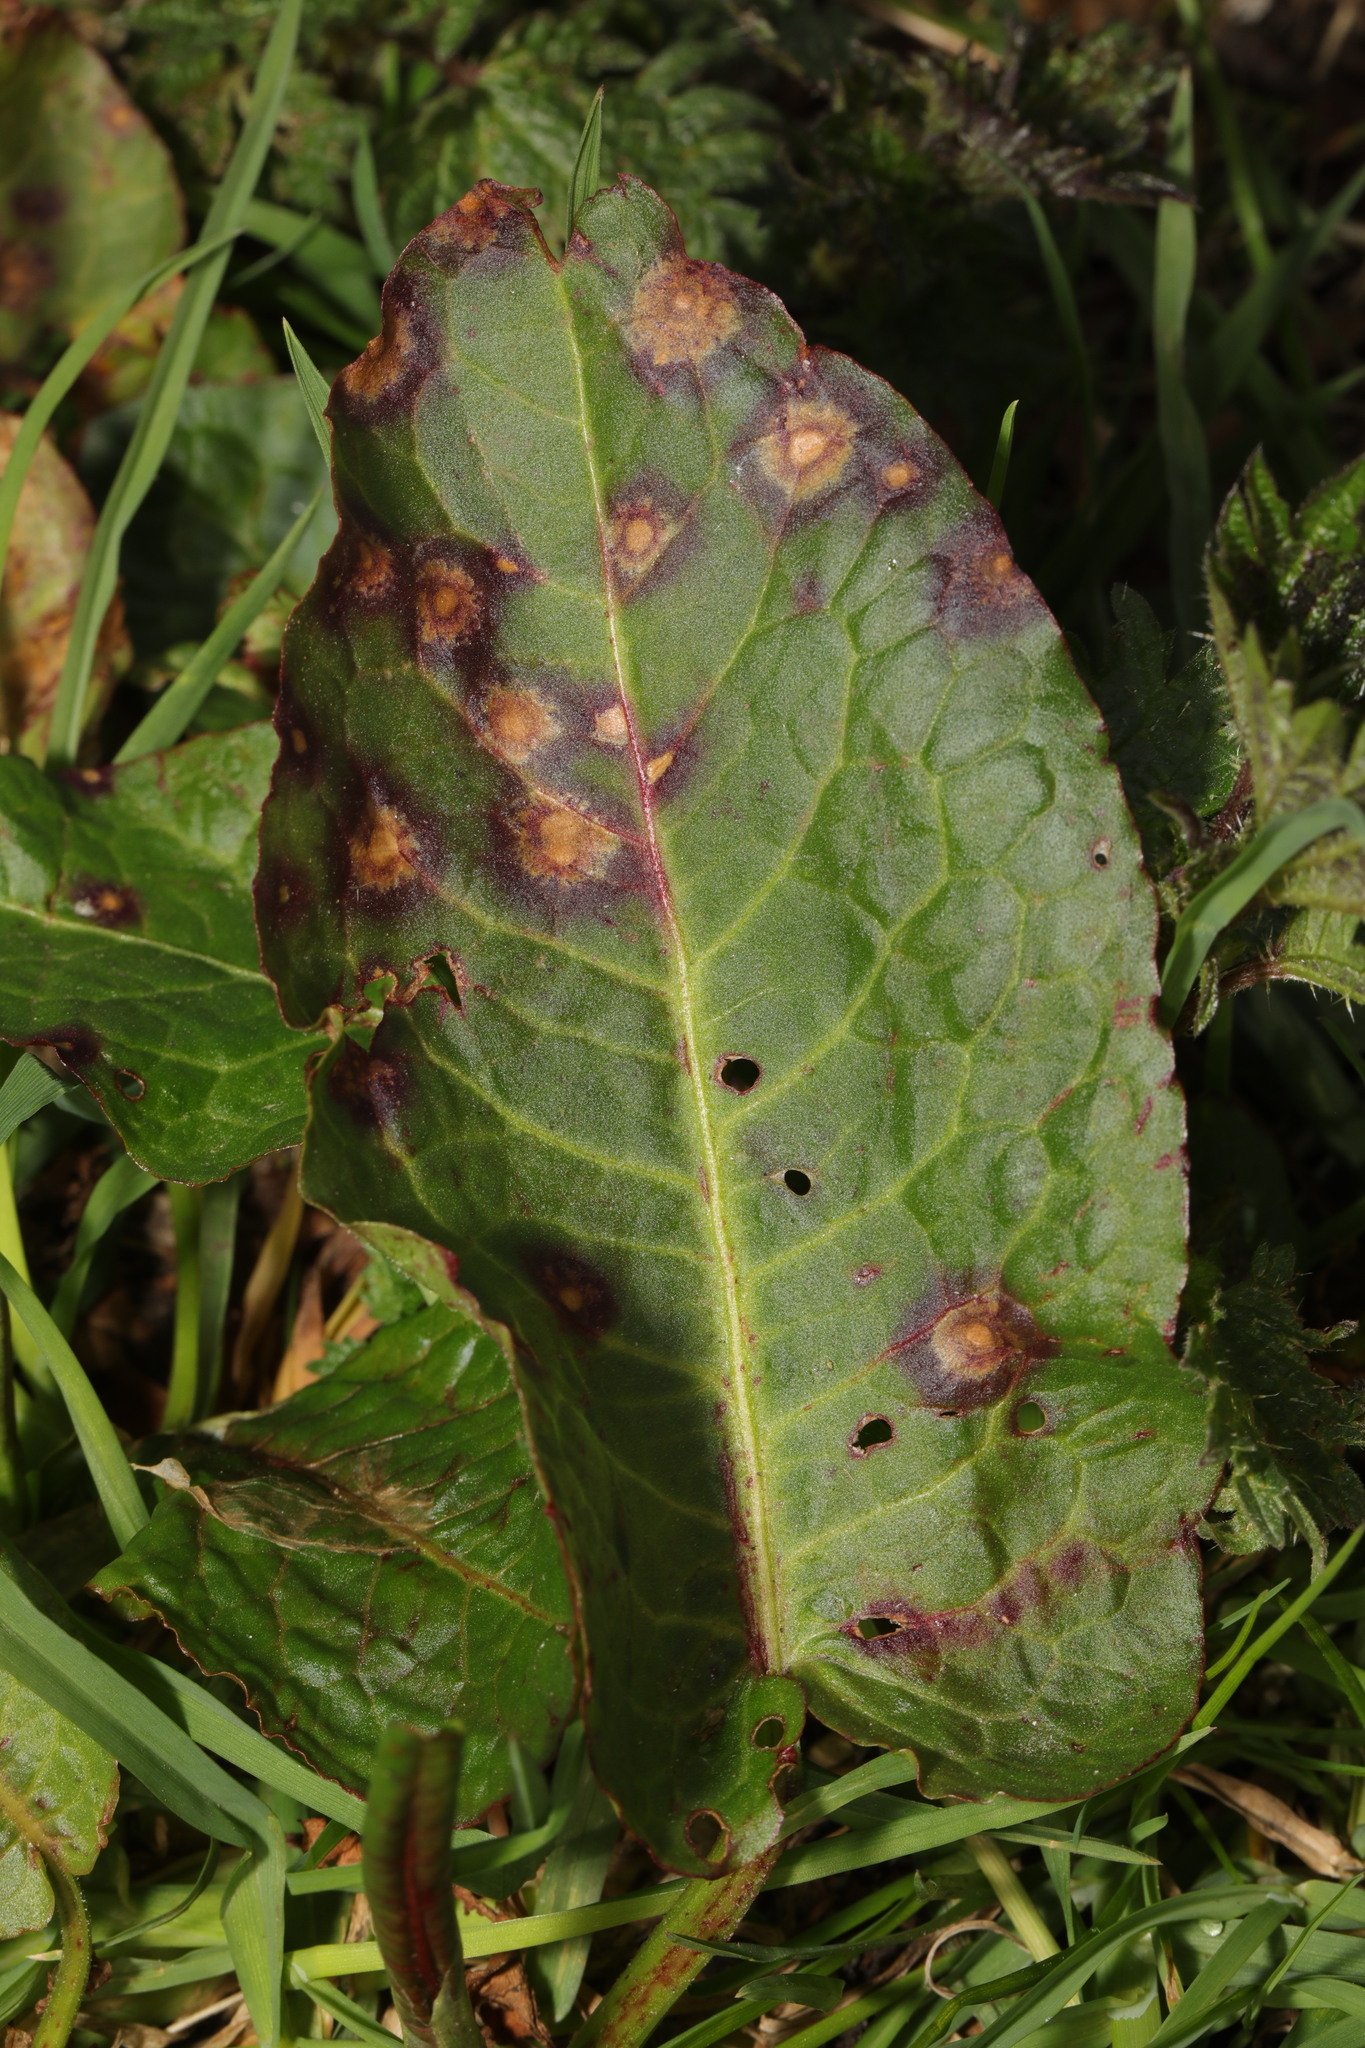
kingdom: Plantae
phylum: Tracheophyta
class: Magnoliopsida
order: Caryophyllales
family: Polygonaceae
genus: Rumex
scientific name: Rumex obtusifolius
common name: Bitter dock
